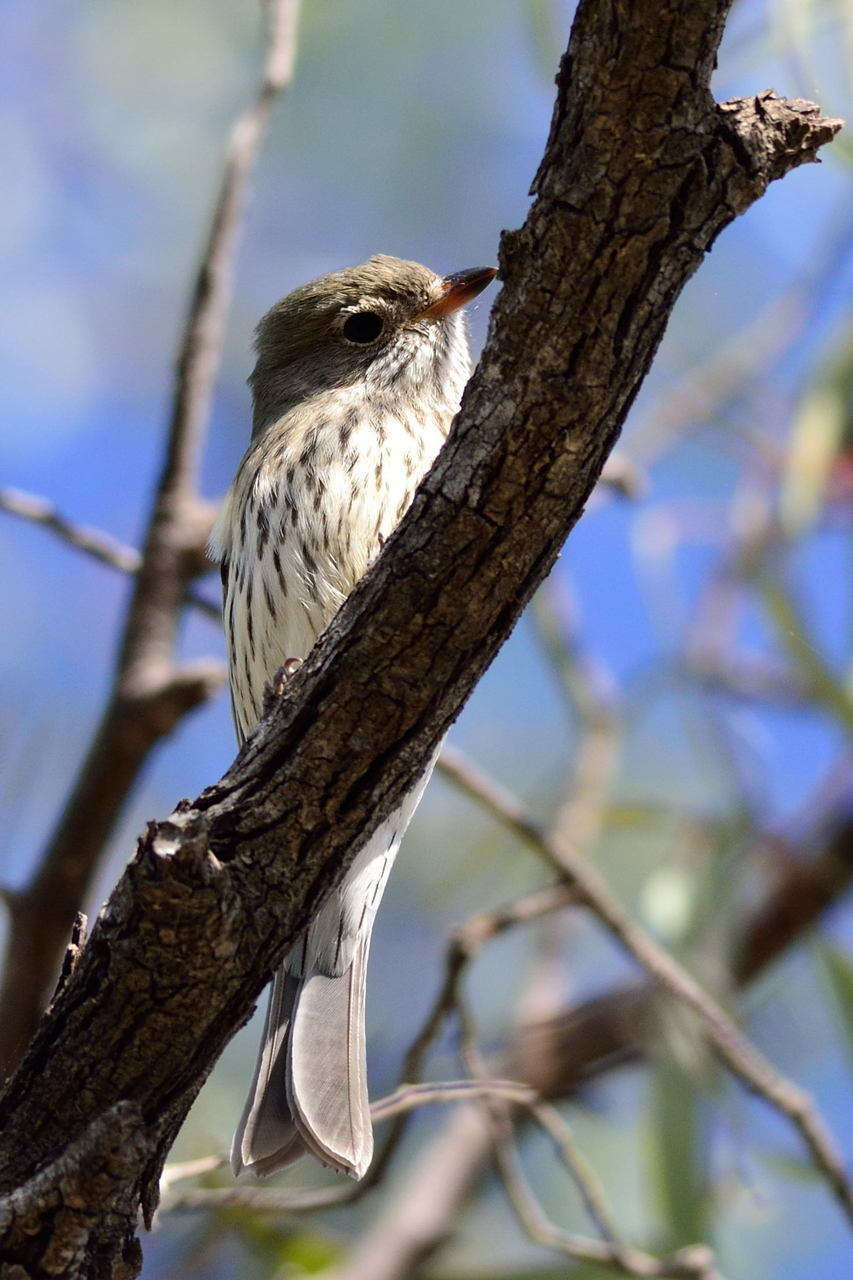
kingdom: Animalia
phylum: Chordata
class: Aves
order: Passeriformes
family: Pachycephalidae
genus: Pachycephala
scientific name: Pachycephala rufiventris
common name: Rufous whistler
